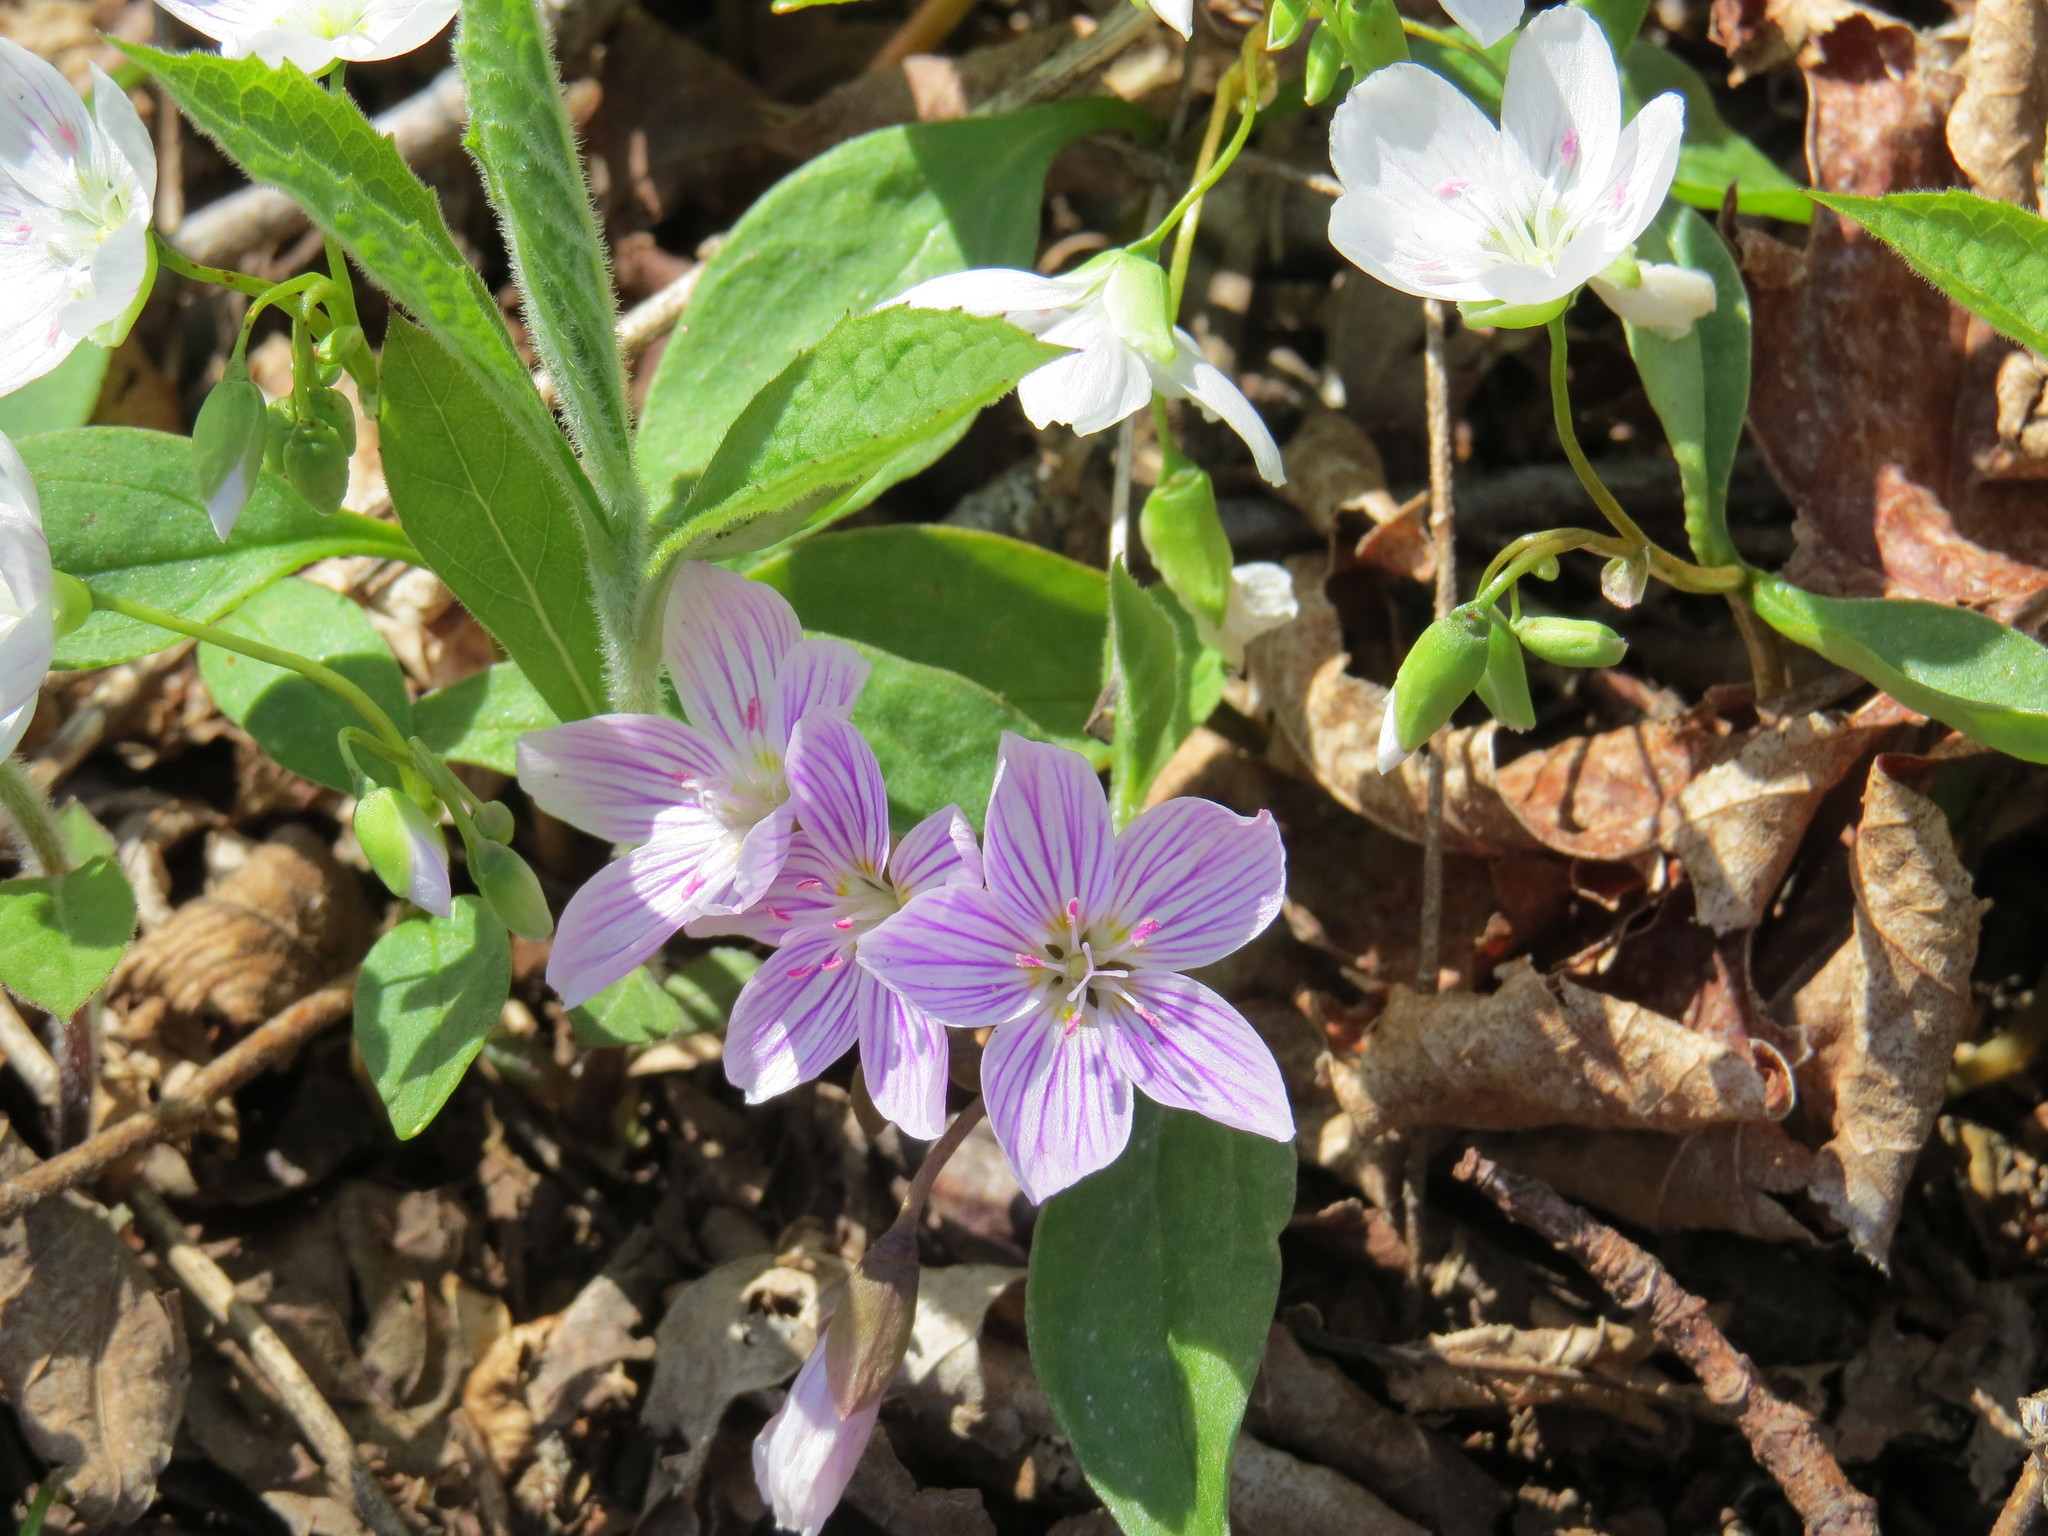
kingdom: Plantae
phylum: Tracheophyta
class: Magnoliopsida
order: Caryophyllales
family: Montiaceae
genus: Claytonia
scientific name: Claytonia caroliniana
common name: Carolina spring beauty
